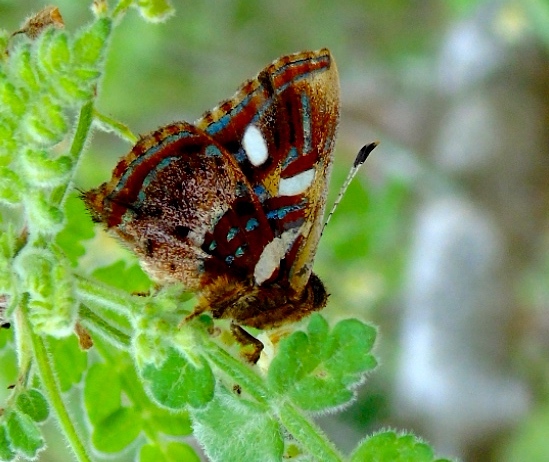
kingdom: Animalia
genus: Anteros
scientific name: Anteros carausius
